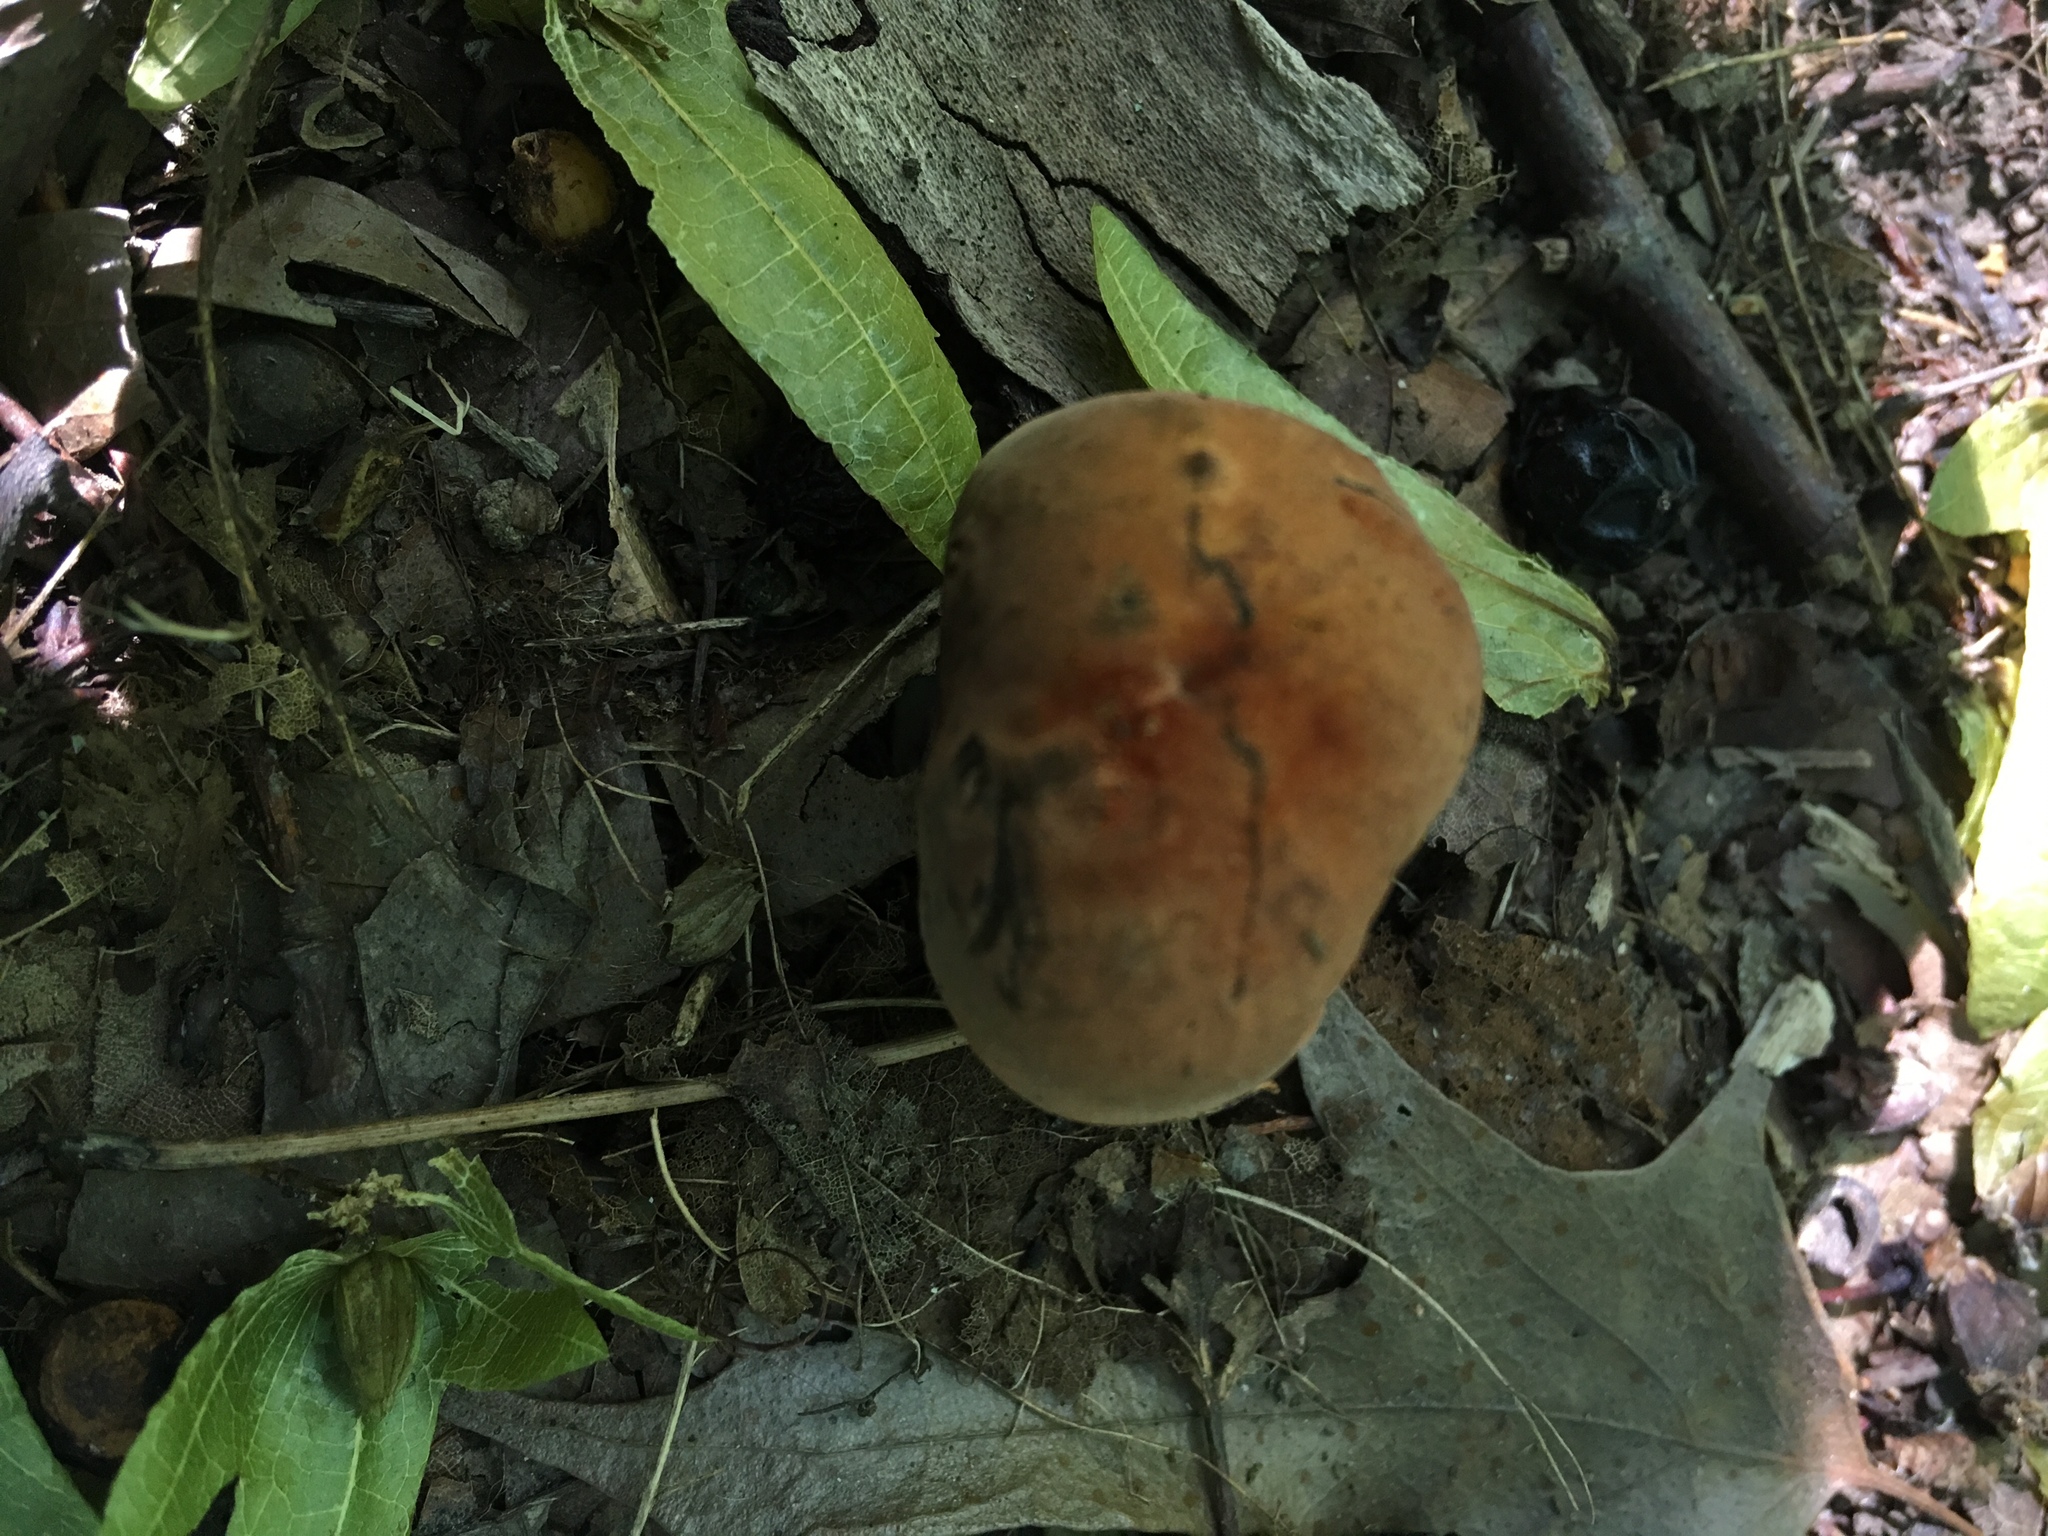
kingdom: Fungi
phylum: Basidiomycota
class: Agaricomycetes
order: Boletales
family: Boletaceae
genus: Boletus
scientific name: Boletus subvelutipes
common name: Red-mouth bolete
